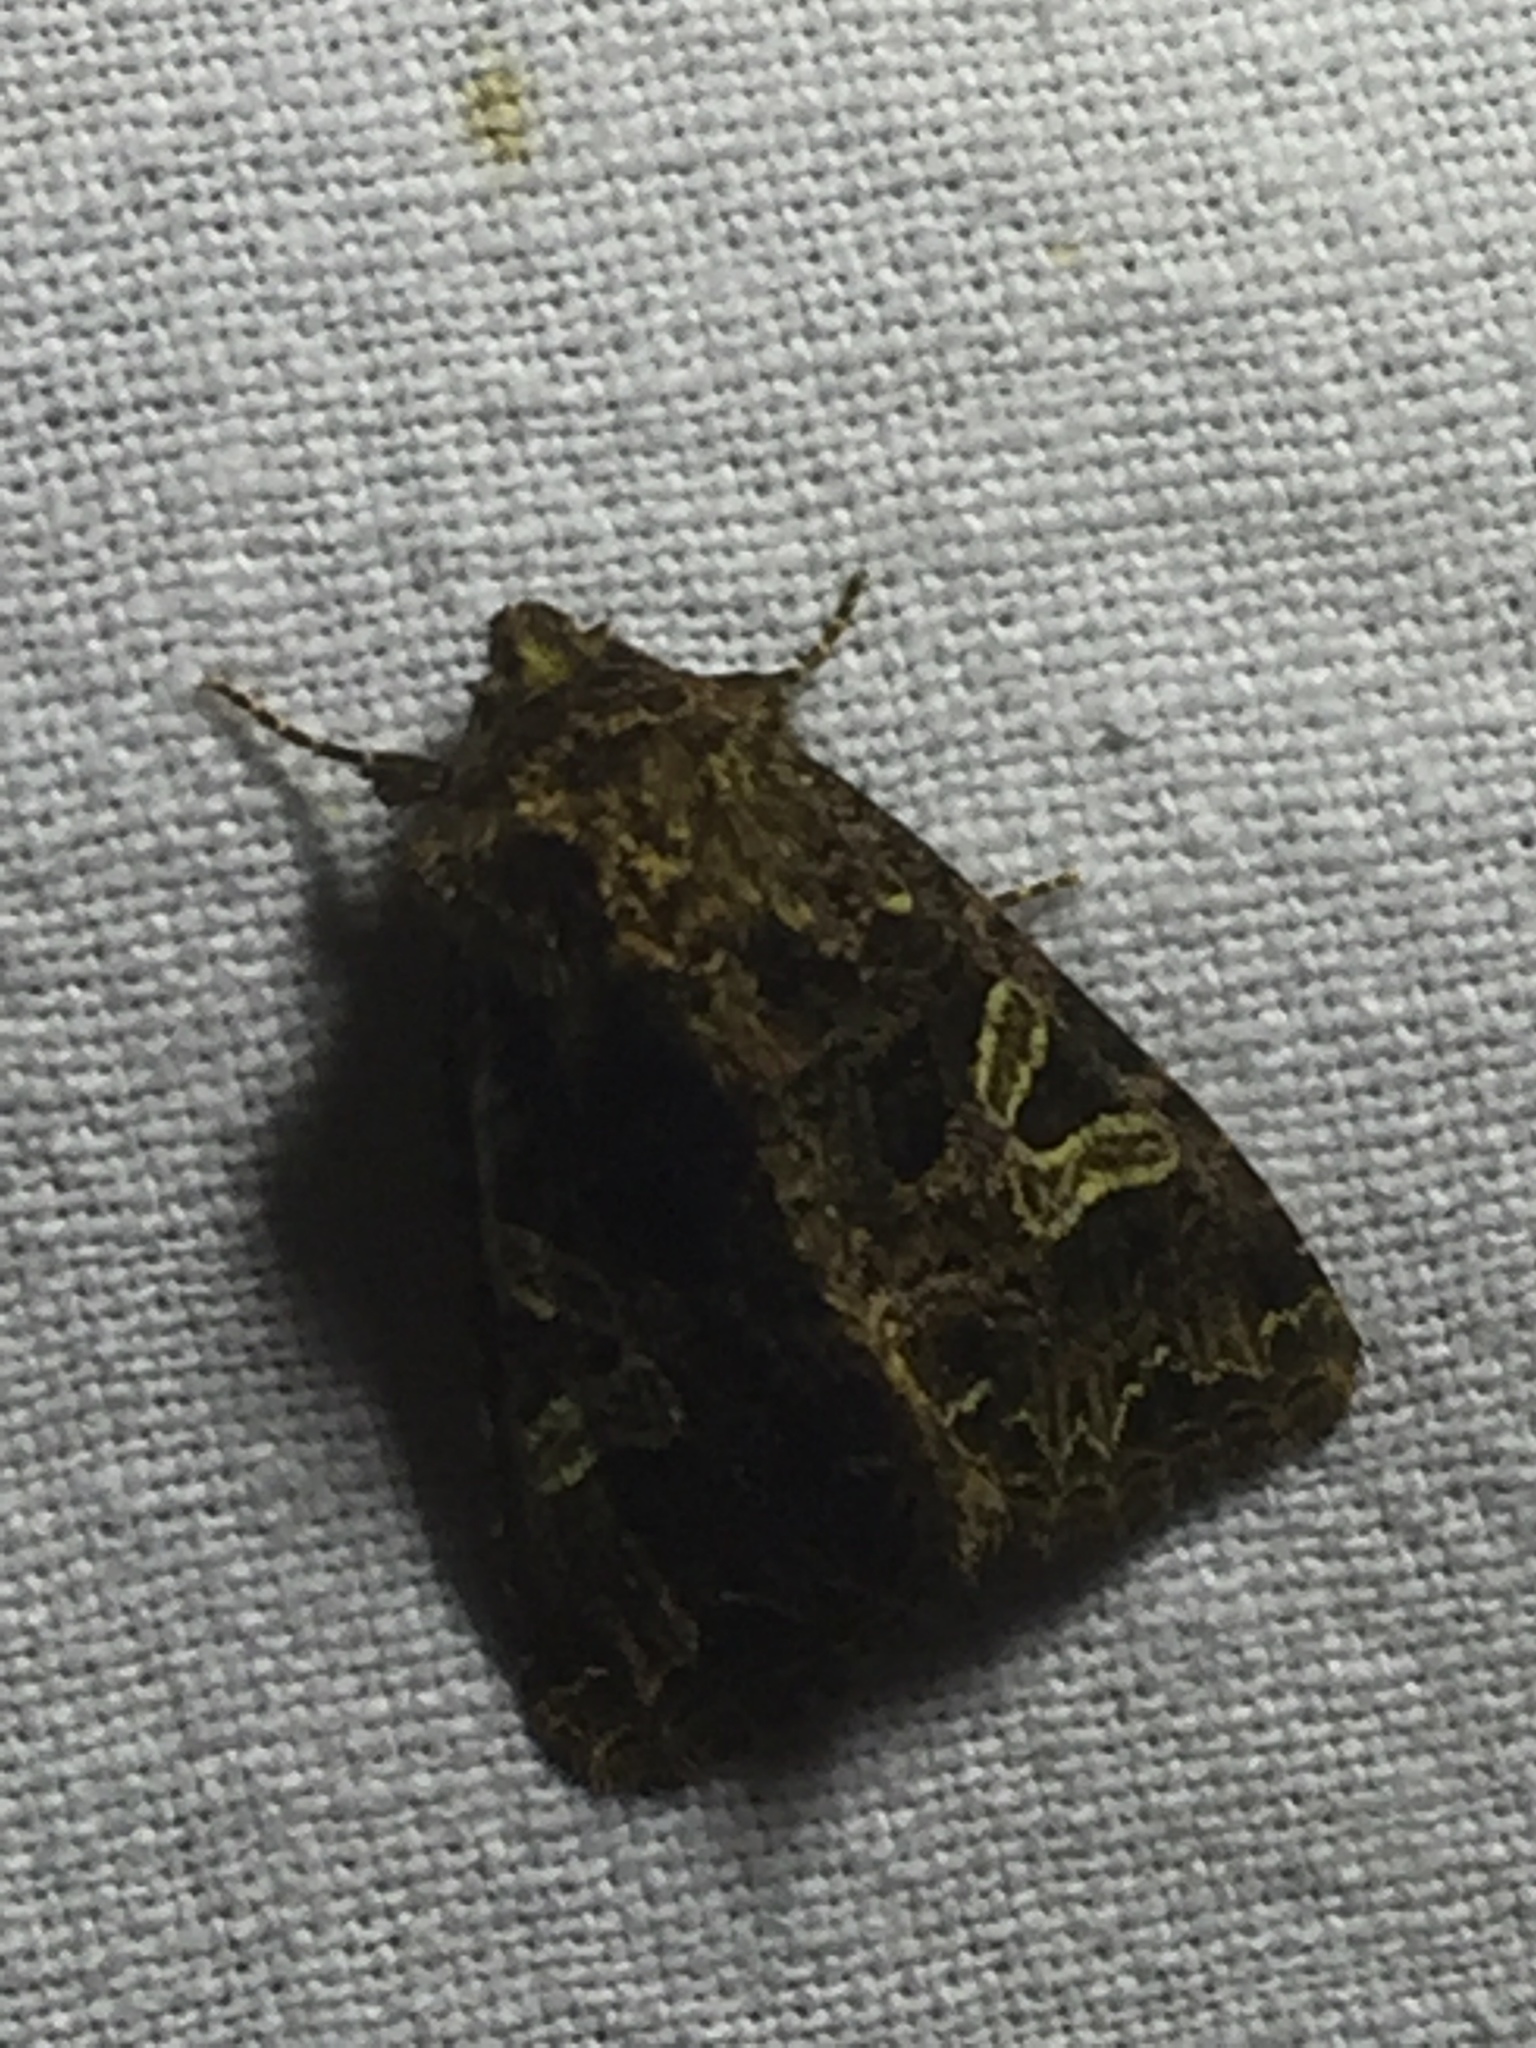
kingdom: Animalia
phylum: Arthropoda
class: Insecta
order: Lepidoptera
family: Noctuidae
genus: Sideridis
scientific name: Sideridis rivularis
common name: Campion
